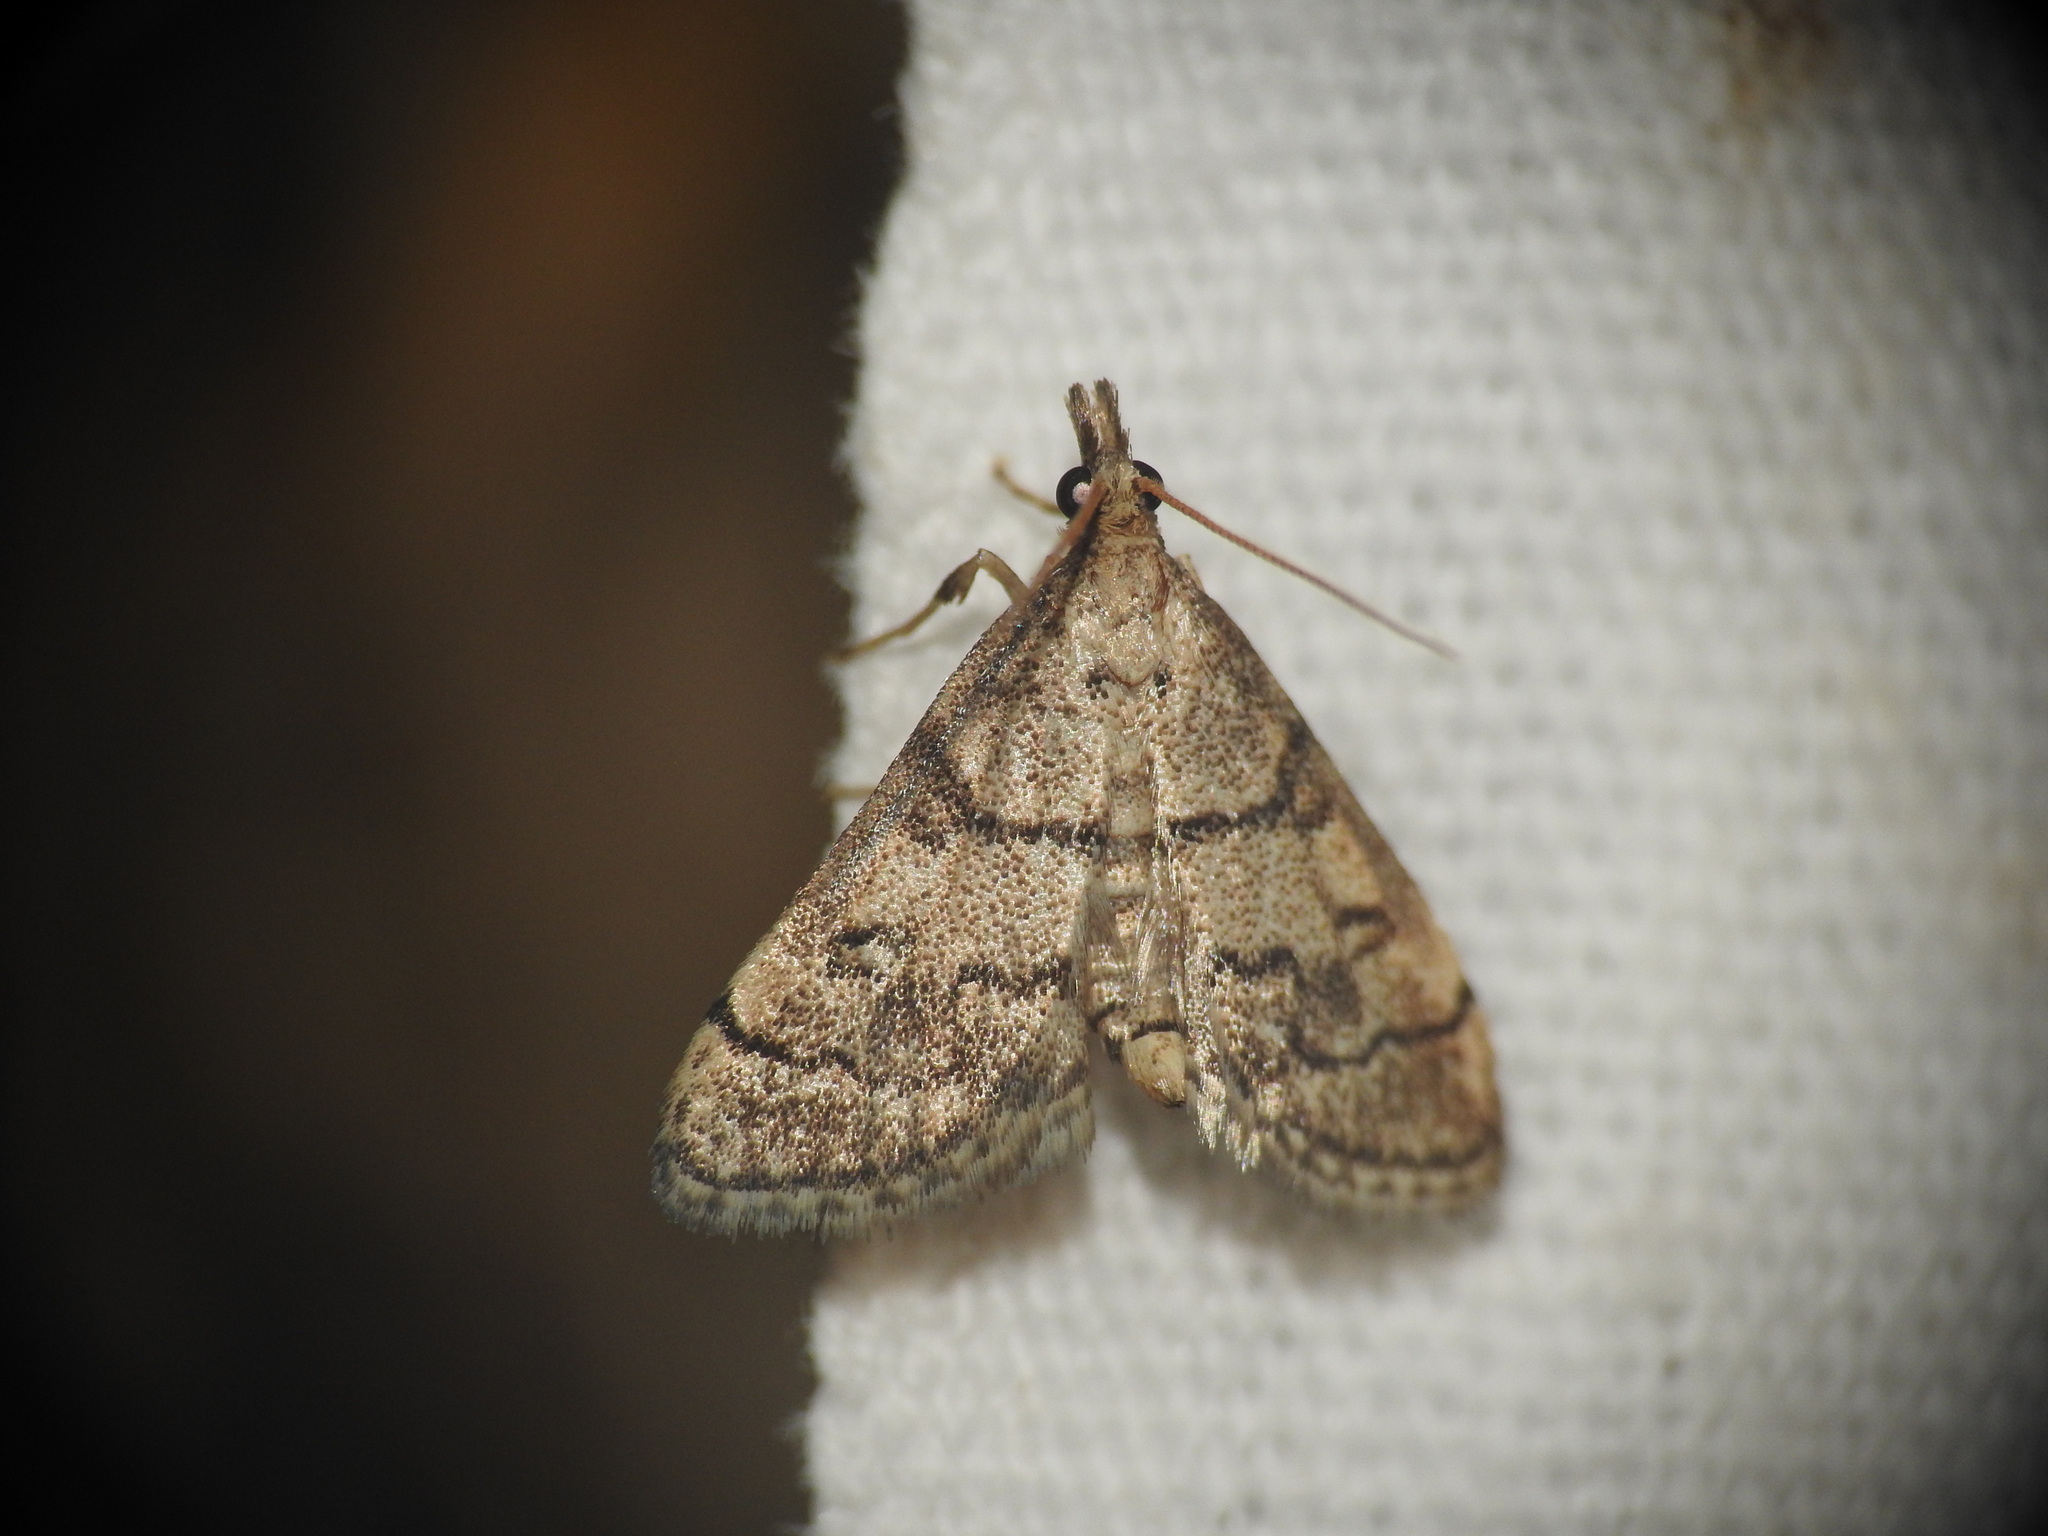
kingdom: Animalia
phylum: Arthropoda
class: Insecta
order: Lepidoptera
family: Crambidae
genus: Metasia
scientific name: Metasia cuencalis
